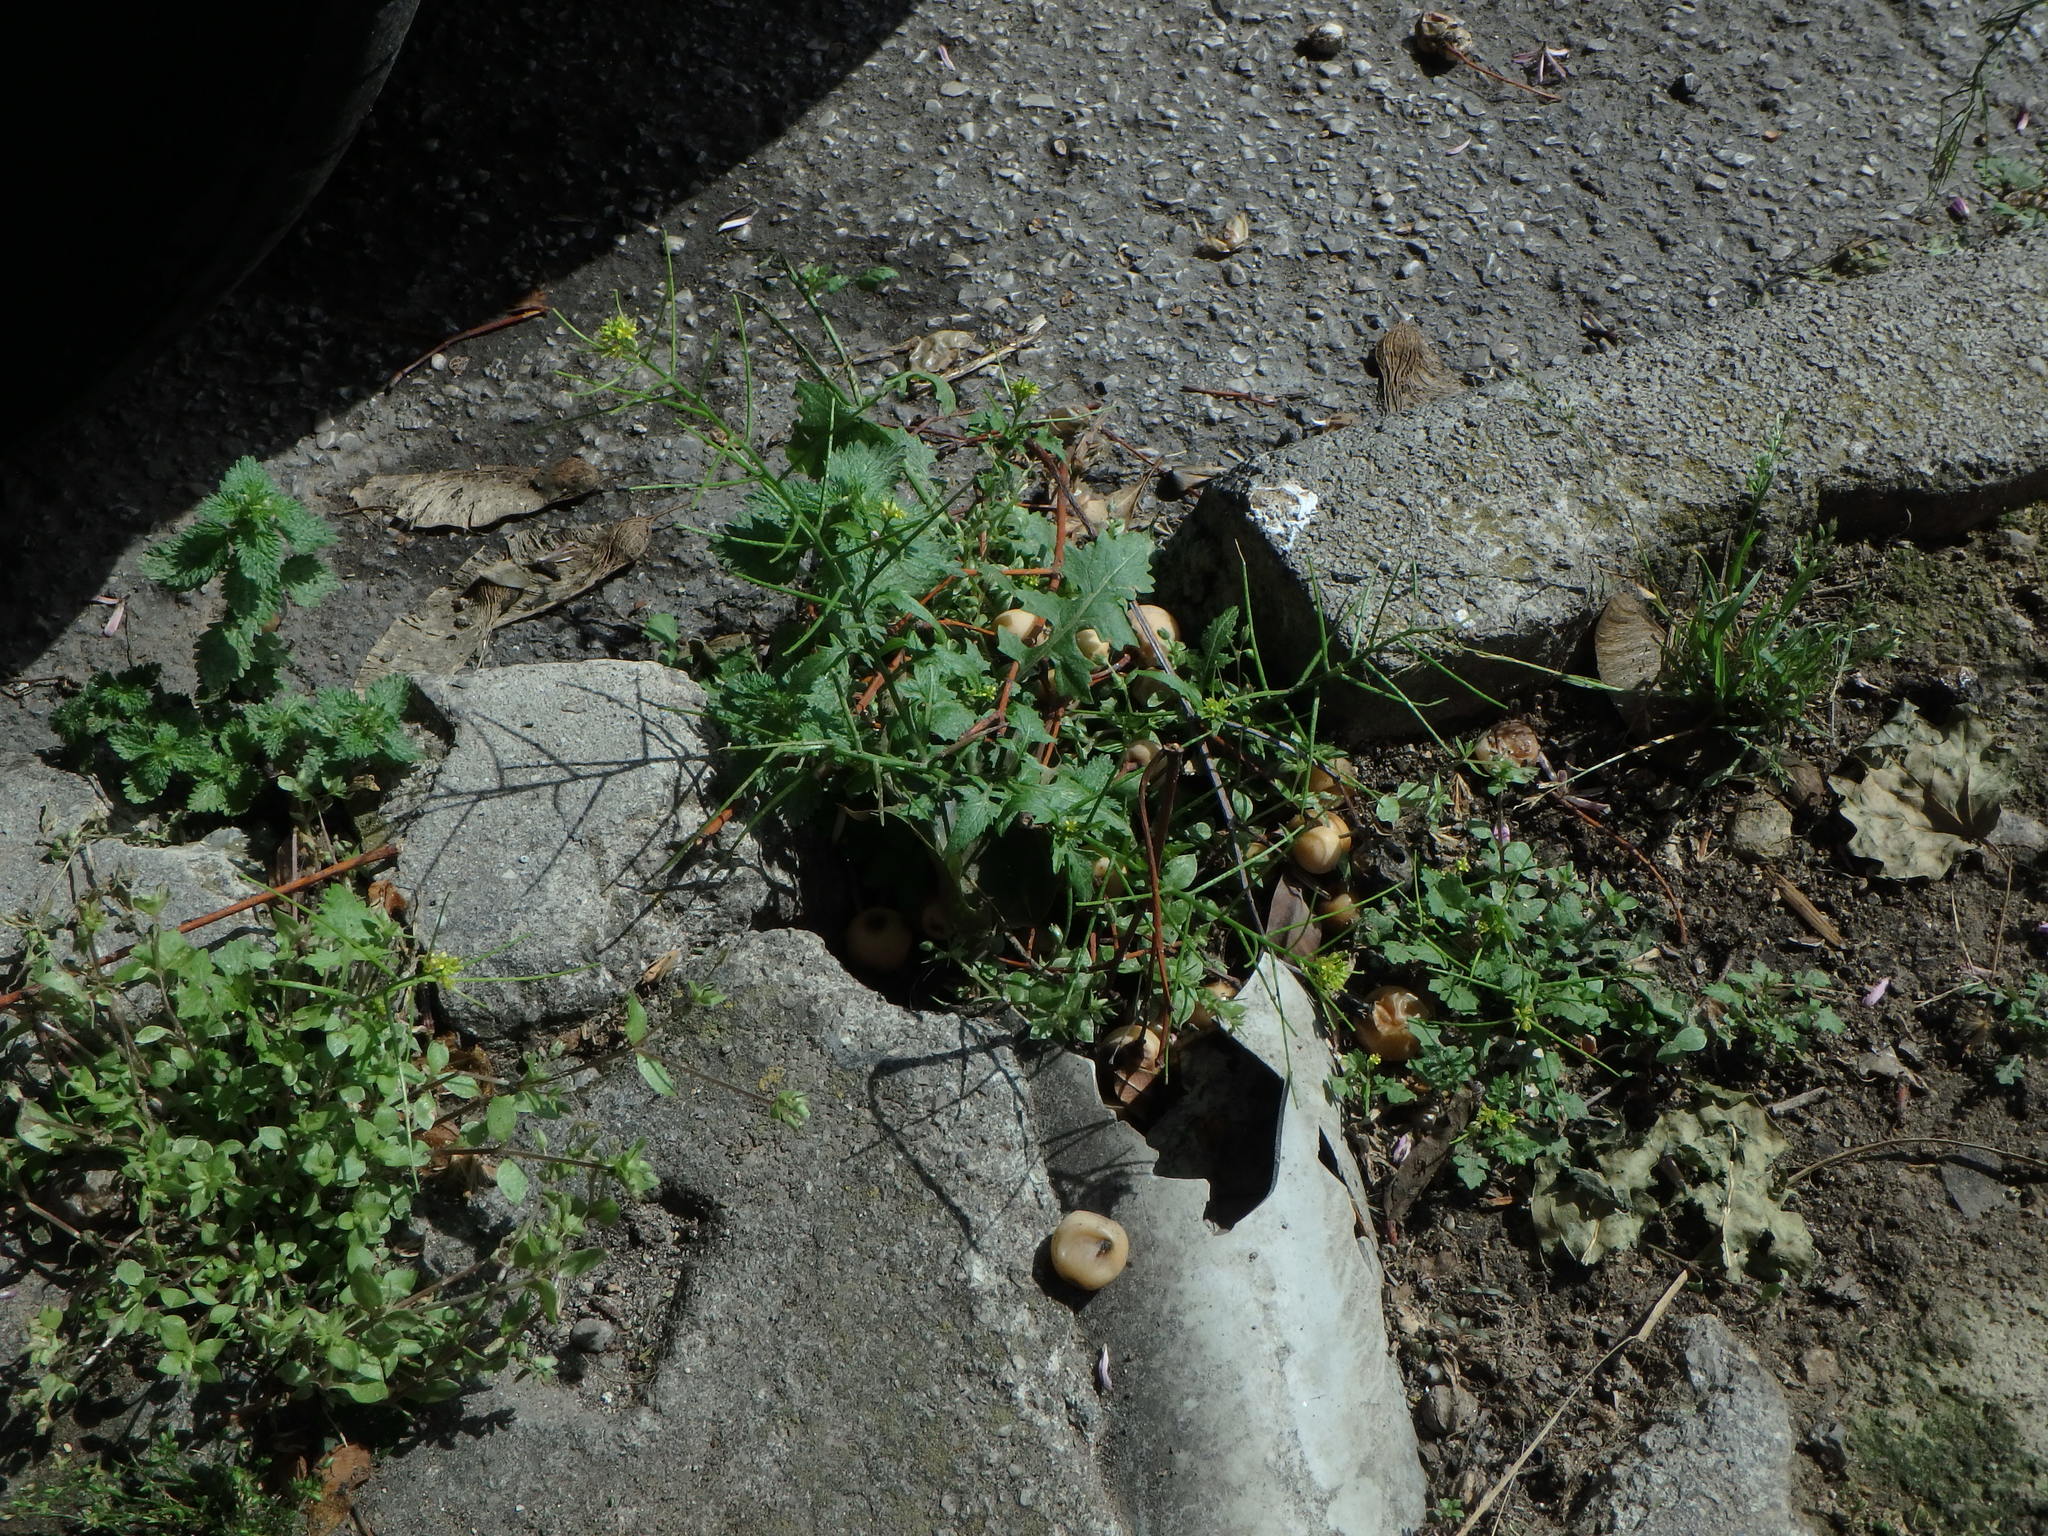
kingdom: Plantae
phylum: Tracheophyta
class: Magnoliopsida
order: Brassicales
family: Brassicaceae
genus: Sisymbrium
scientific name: Sisymbrium irio
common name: London rocket
